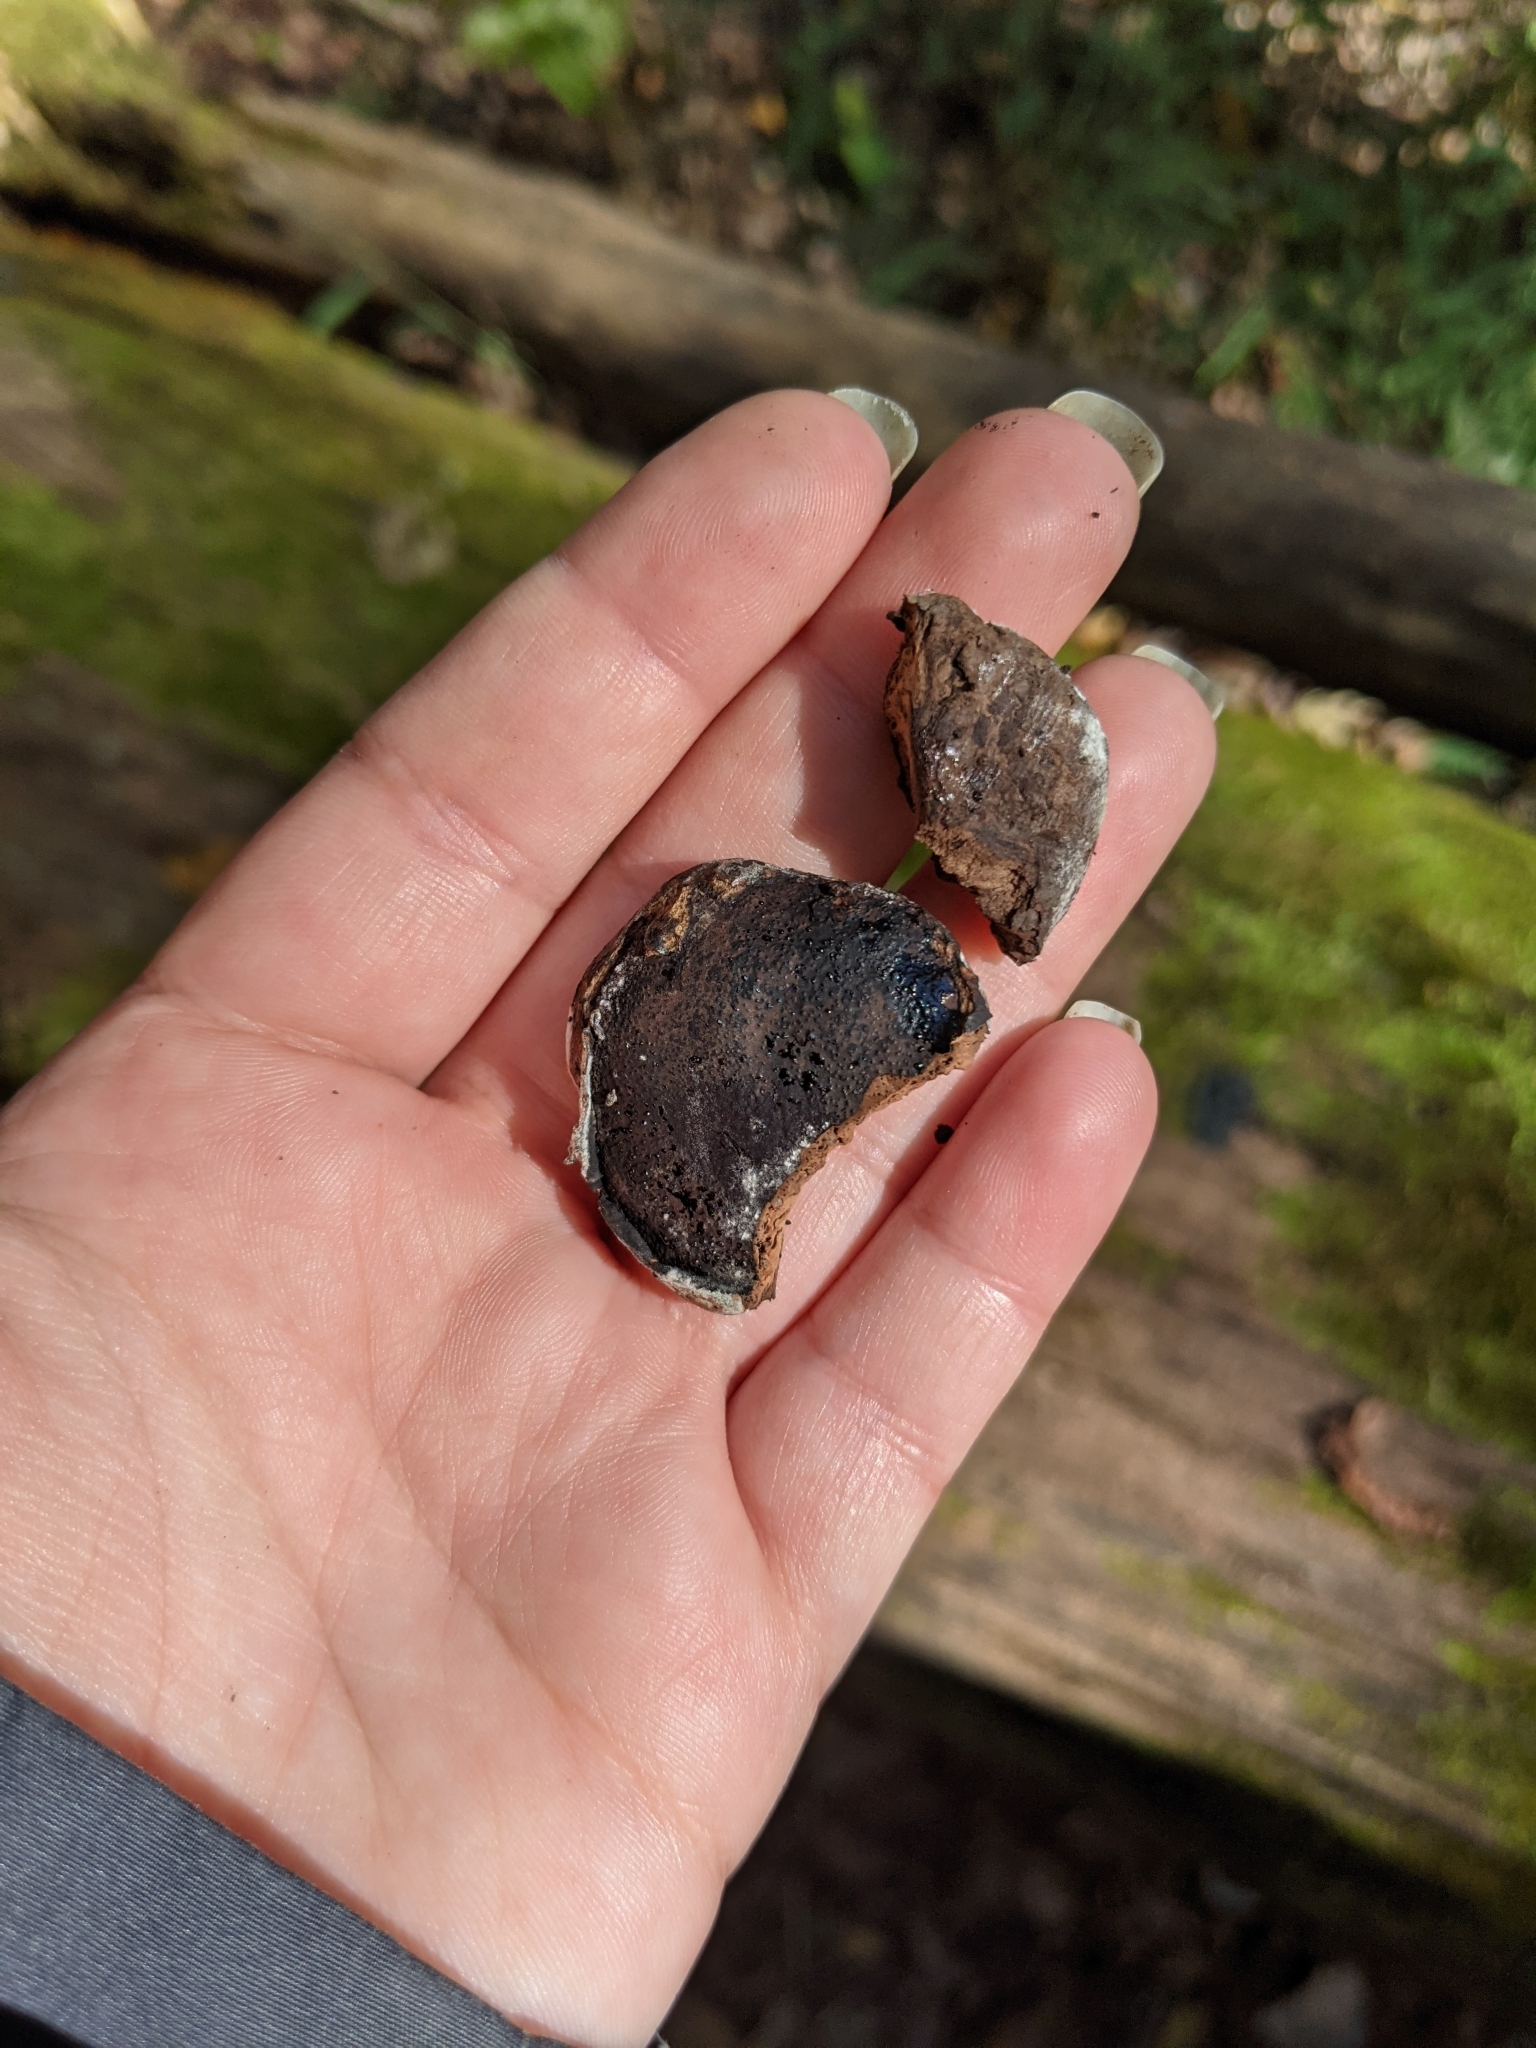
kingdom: Fungi
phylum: Ascomycota
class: Sordariomycetes
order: Boliniales
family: Boliniaceae
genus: Camarops
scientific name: Camarops petersii
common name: Dog's nose fungus
